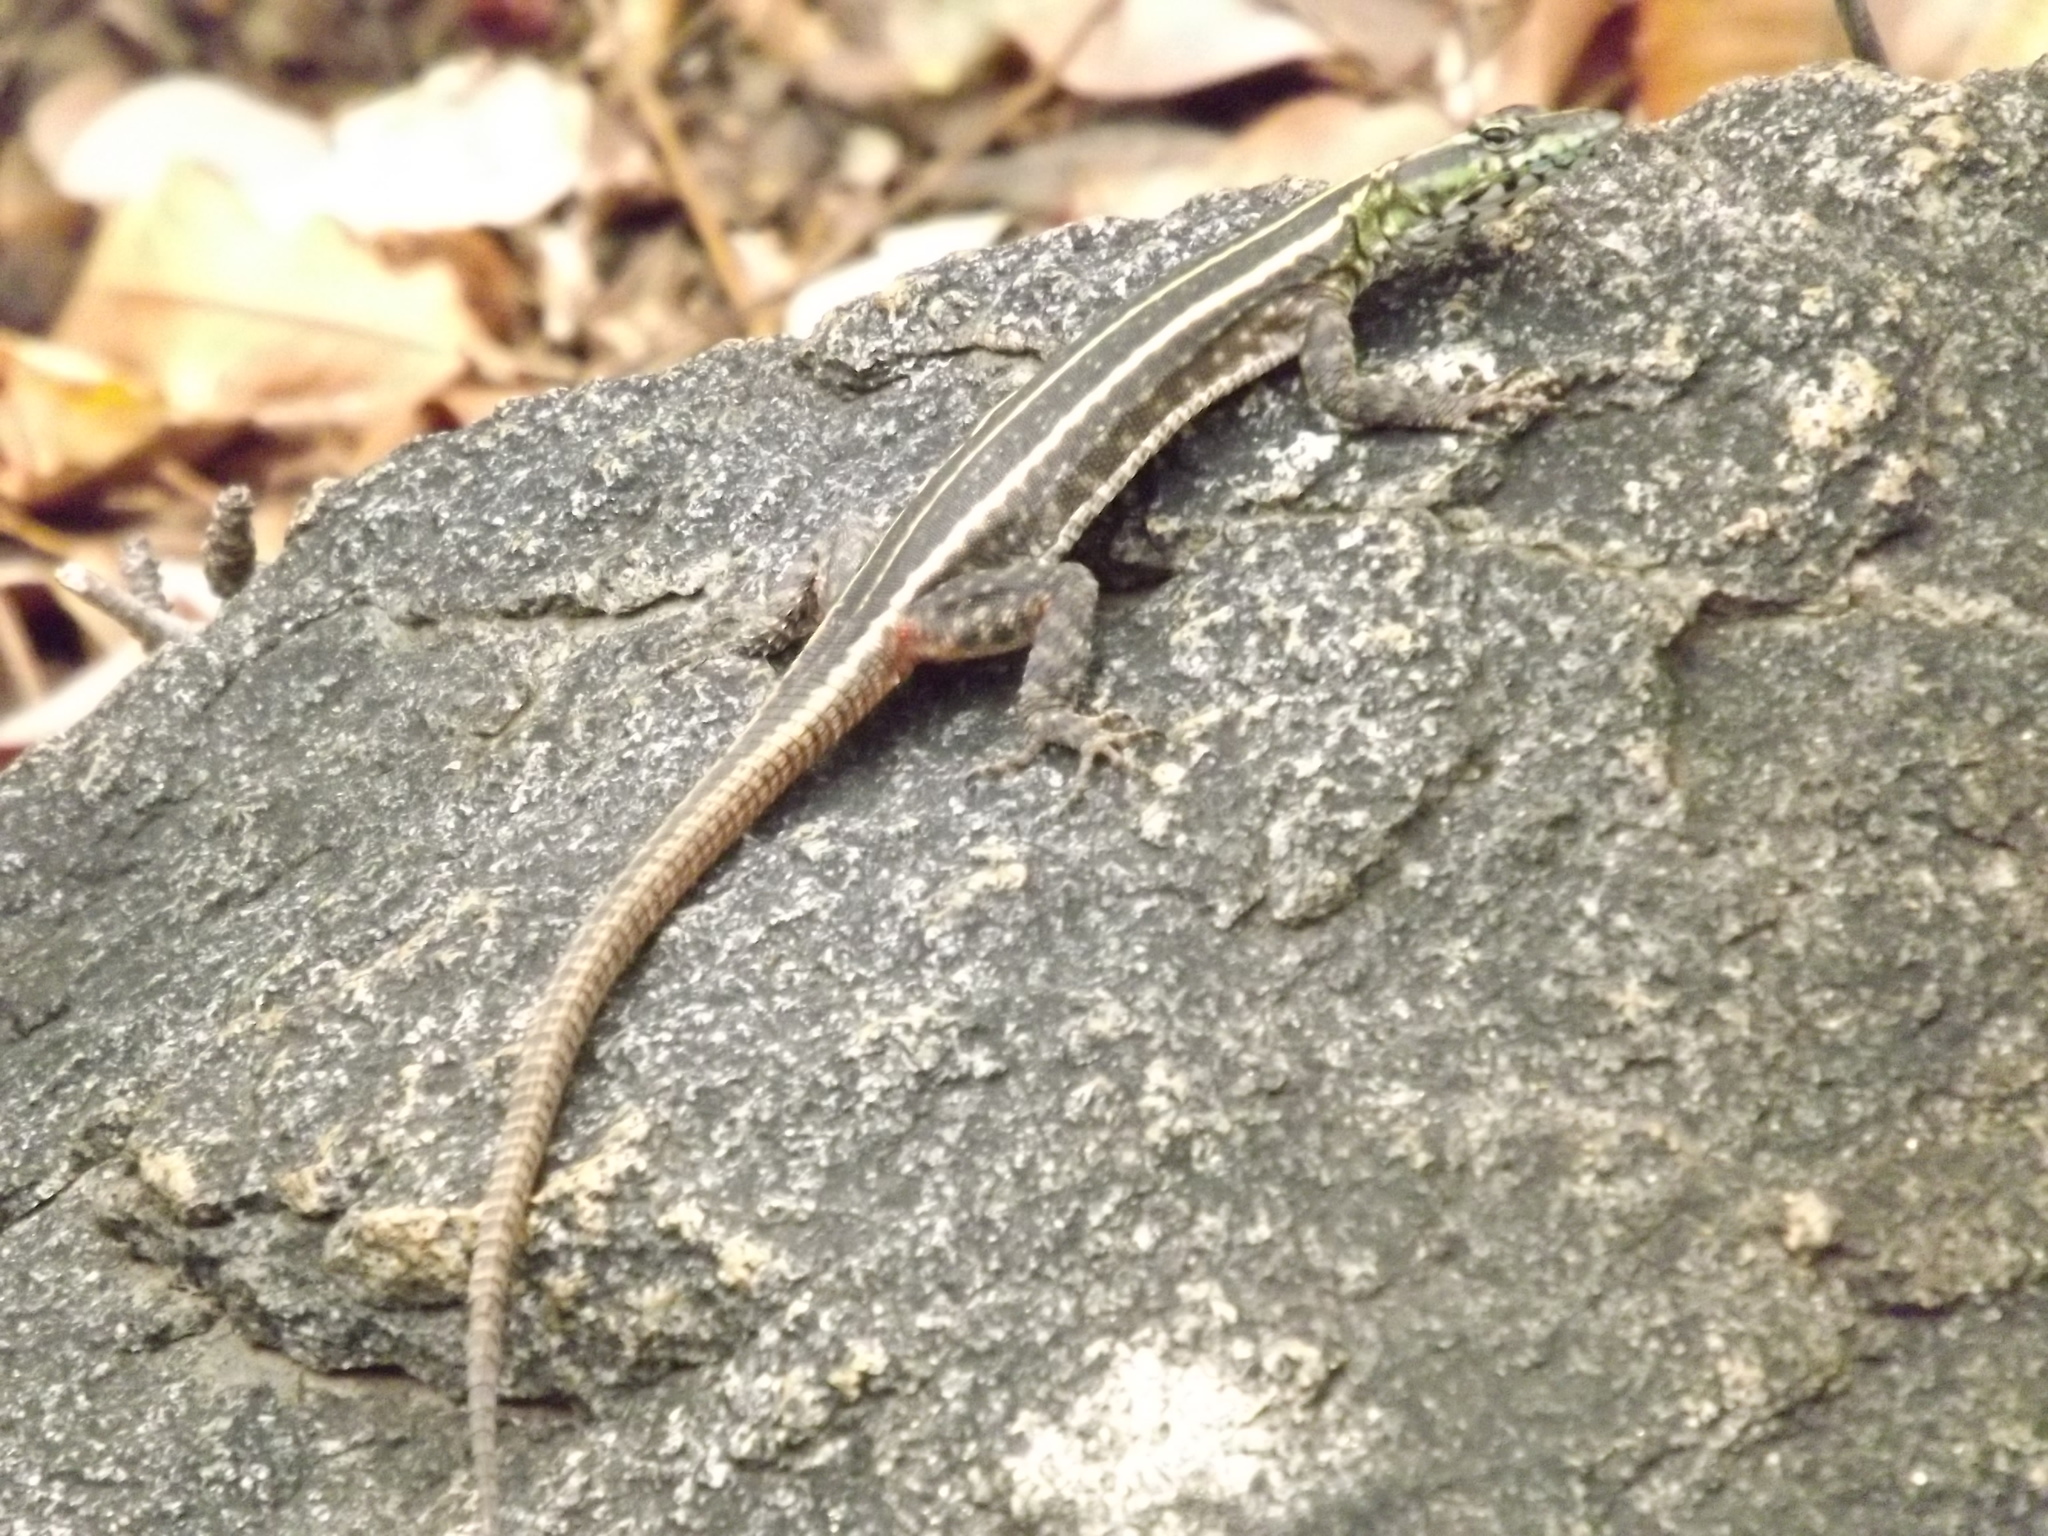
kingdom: Animalia
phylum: Chordata
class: Squamata
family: Cordylidae
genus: Platysaurus
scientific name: Platysaurus intermedius
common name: Common flat lizard
